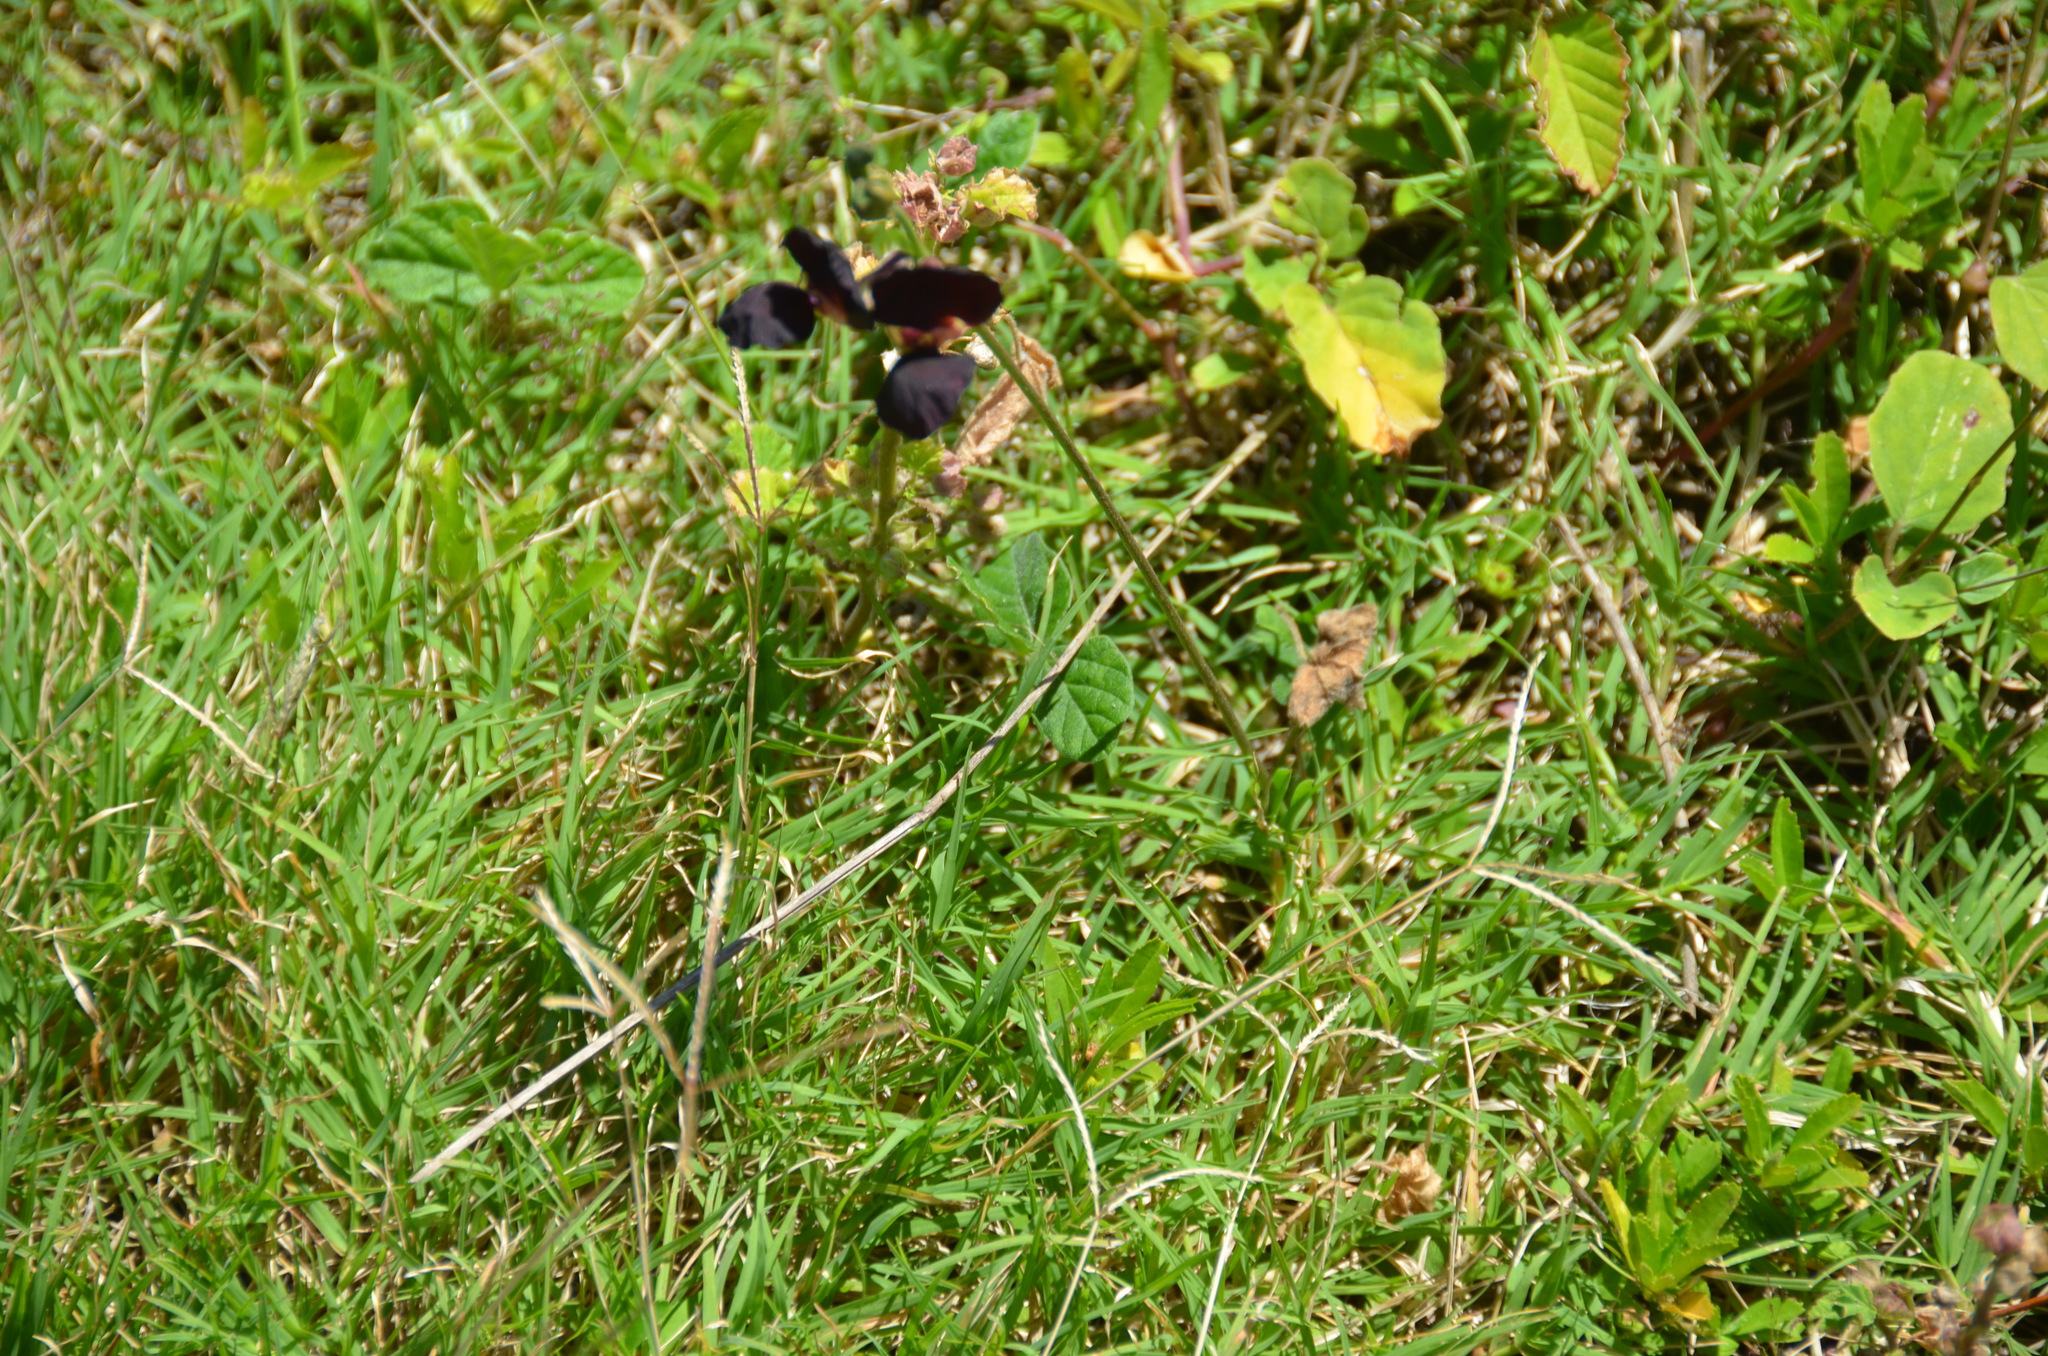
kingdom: Plantae
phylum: Tracheophyta
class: Magnoliopsida
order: Fabales
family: Fabaceae
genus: Macroptilium
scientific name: Macroptilium atropurpureum
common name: Purple bushbean
